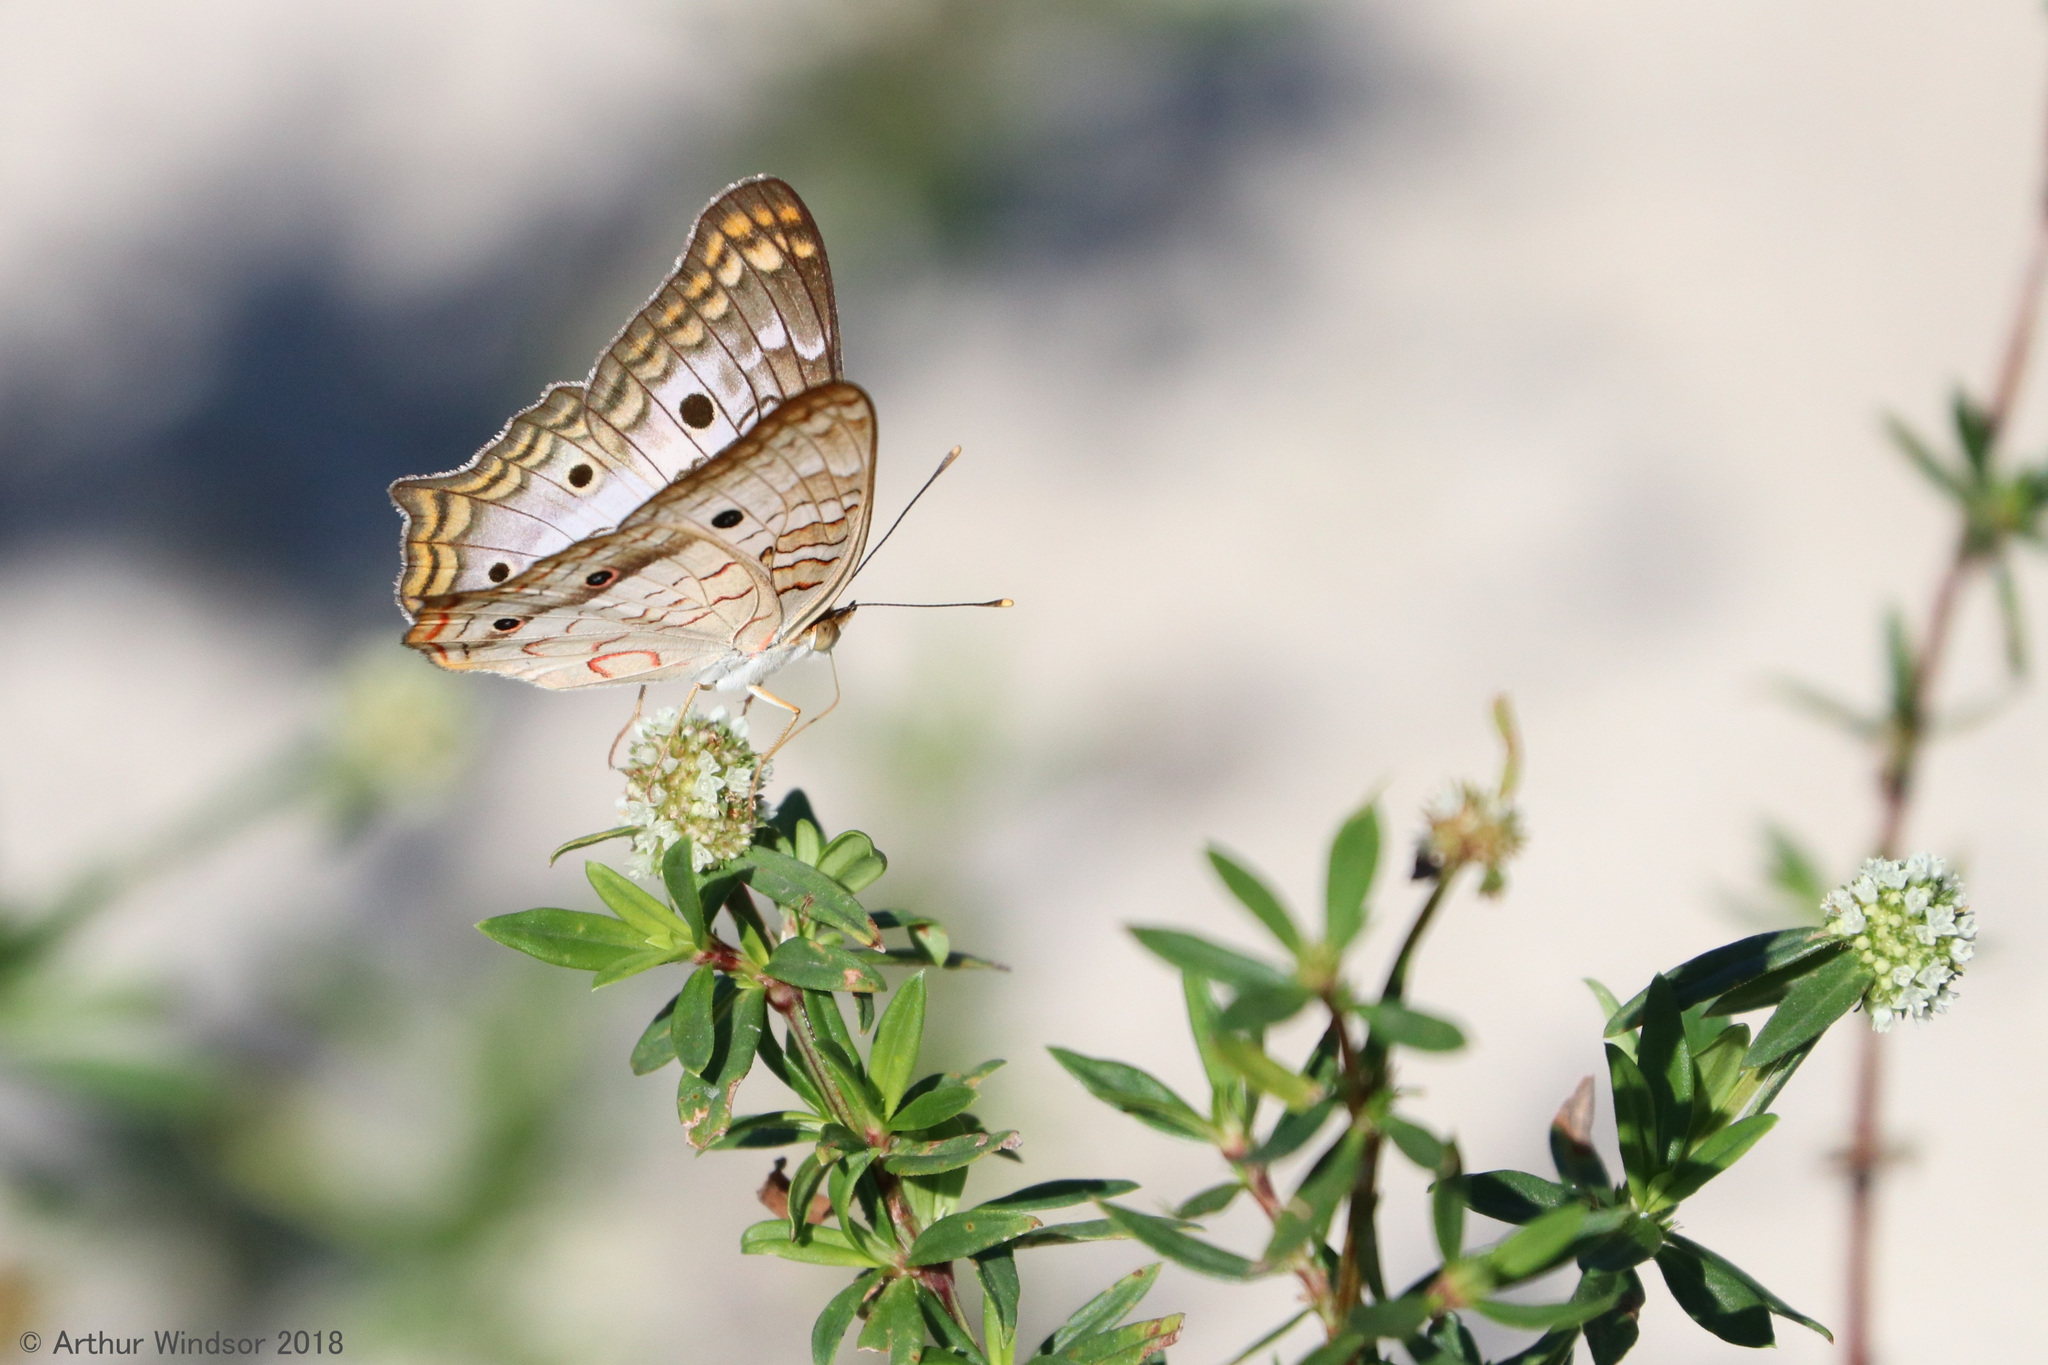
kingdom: Animalia
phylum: Arthropoda
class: Insecta
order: Lepidoptera
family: Nymphalidae
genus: Anartia
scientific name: Anartia jatrophae
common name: White peacock
